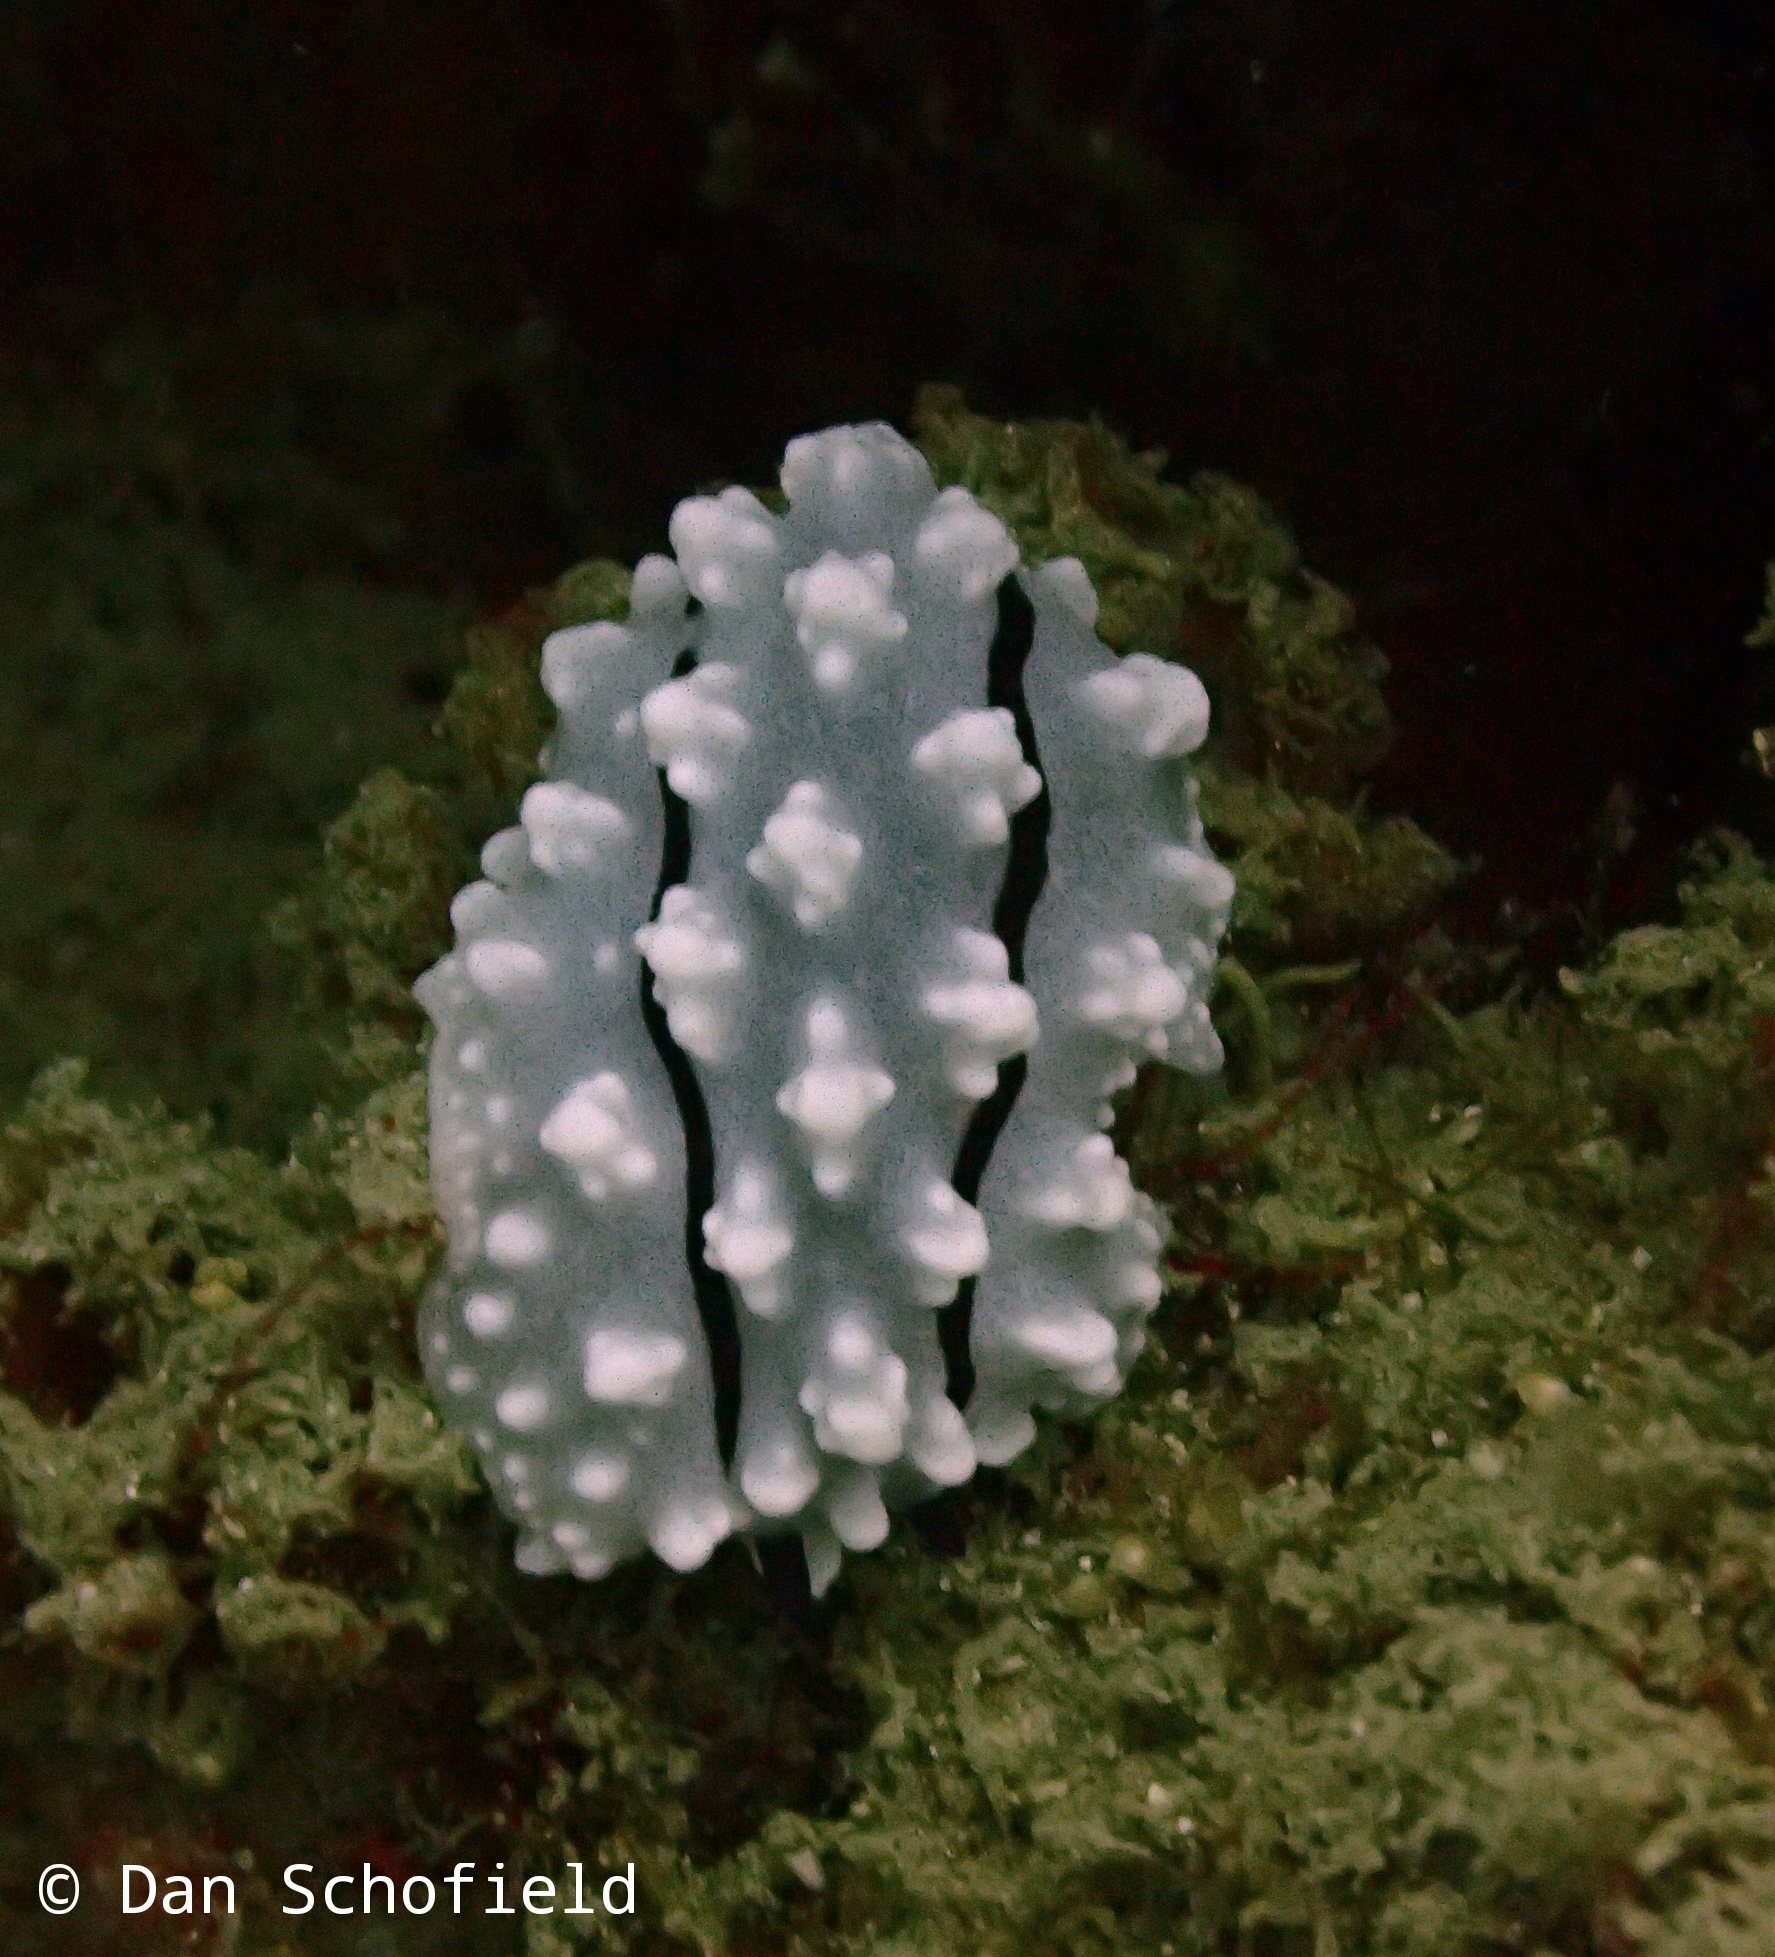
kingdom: Animalia
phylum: Mollusca
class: Gastropoda
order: Nudibranchia
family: Phyllidiidae
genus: Phyllidiella
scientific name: Phyllidiella rudmani
